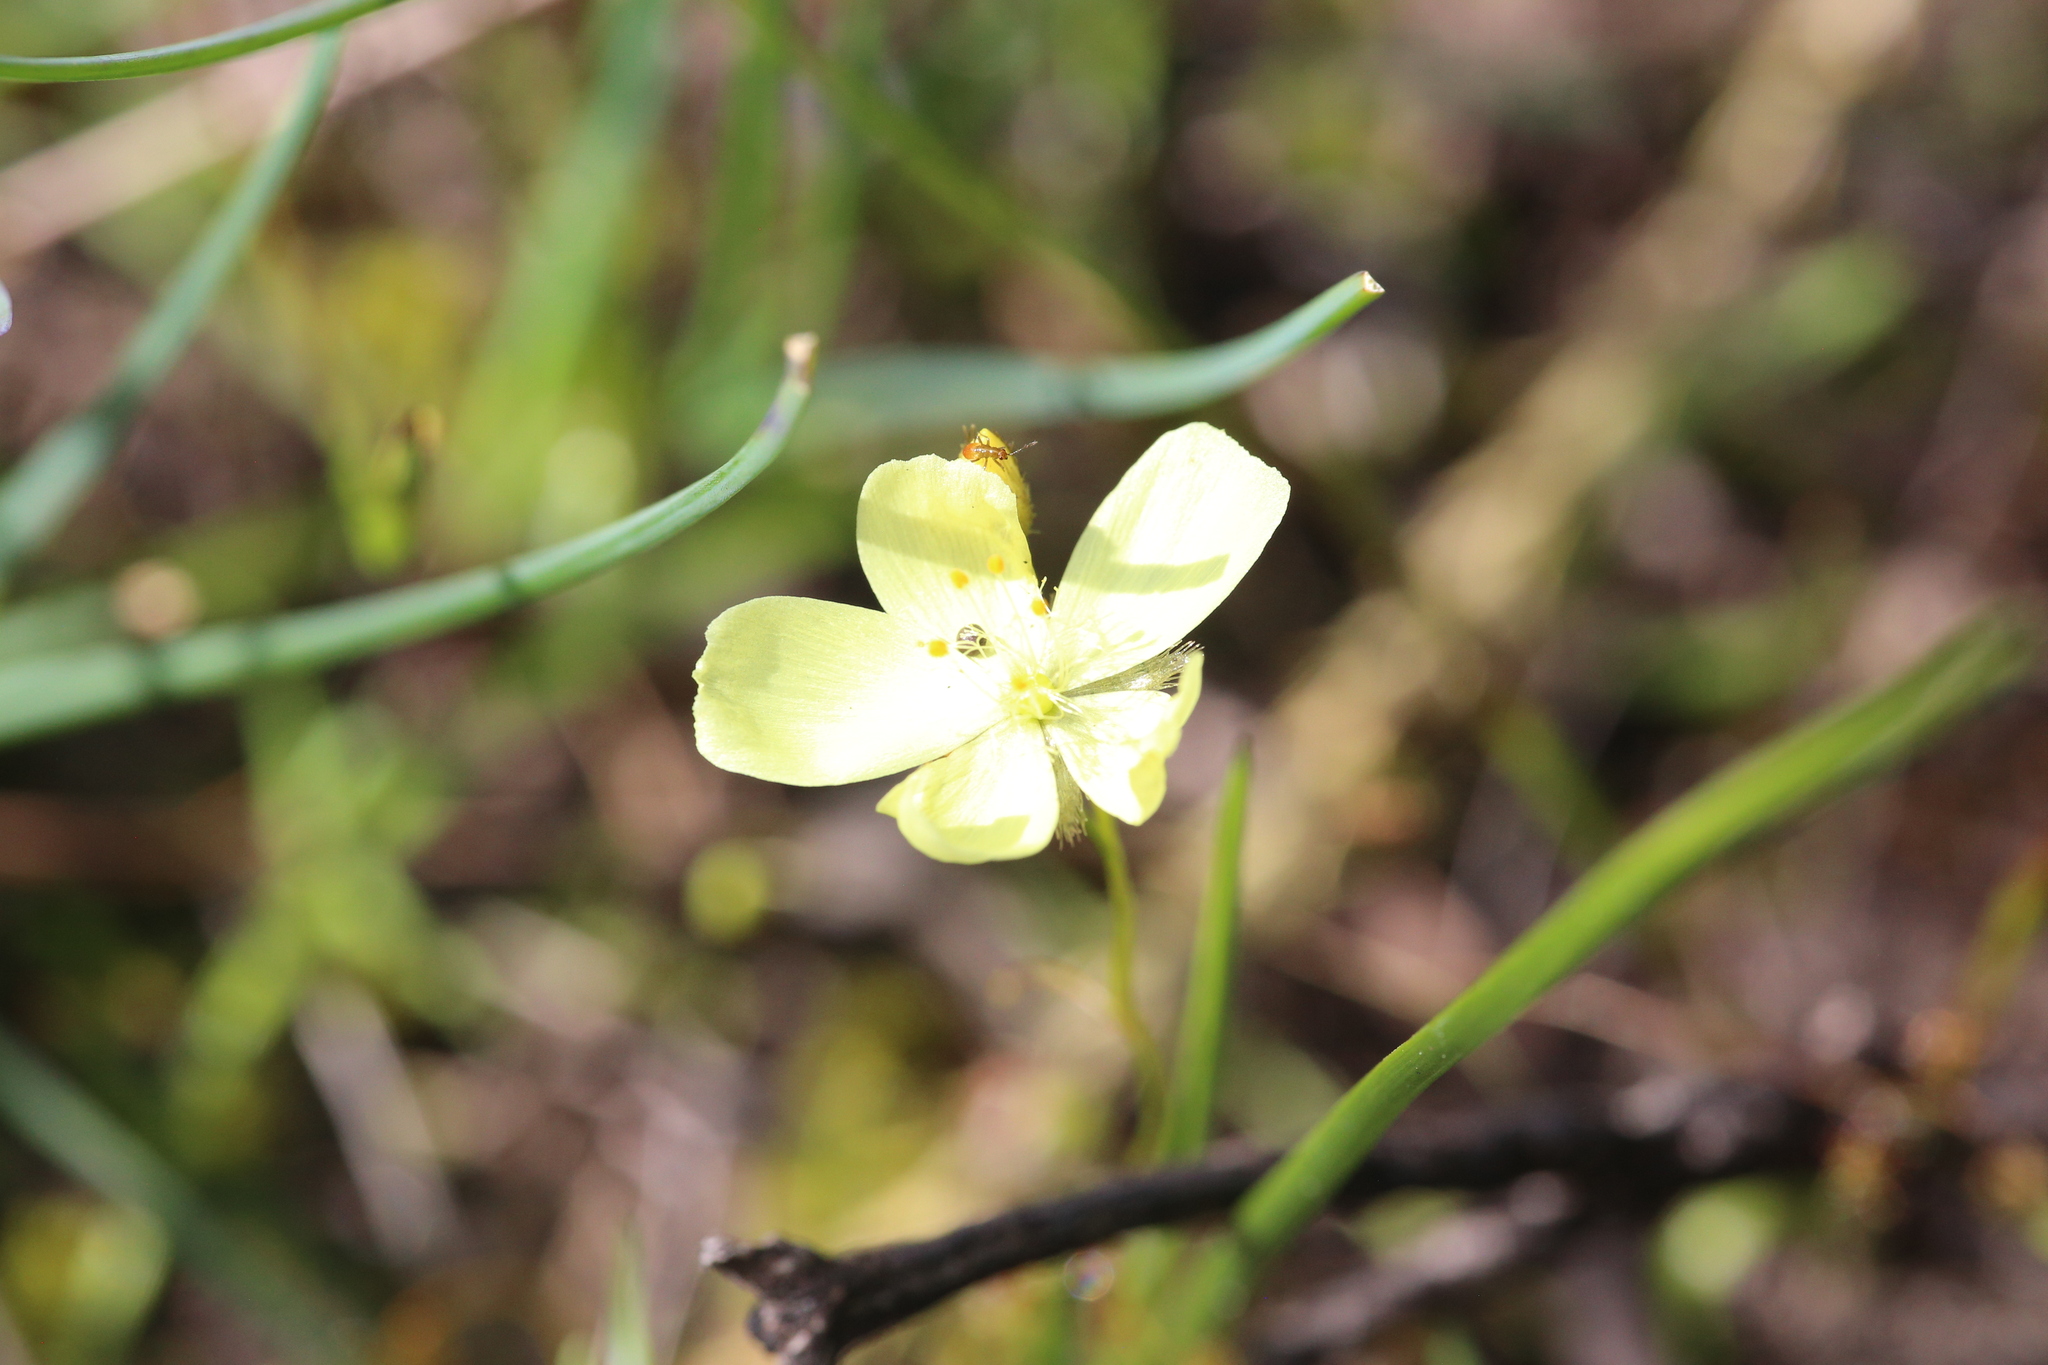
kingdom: Plantae
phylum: Tracheophyta
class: Magnoliopsida
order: Caryophyllales
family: Droseraceae
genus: Drosera
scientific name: Drosera intricata
